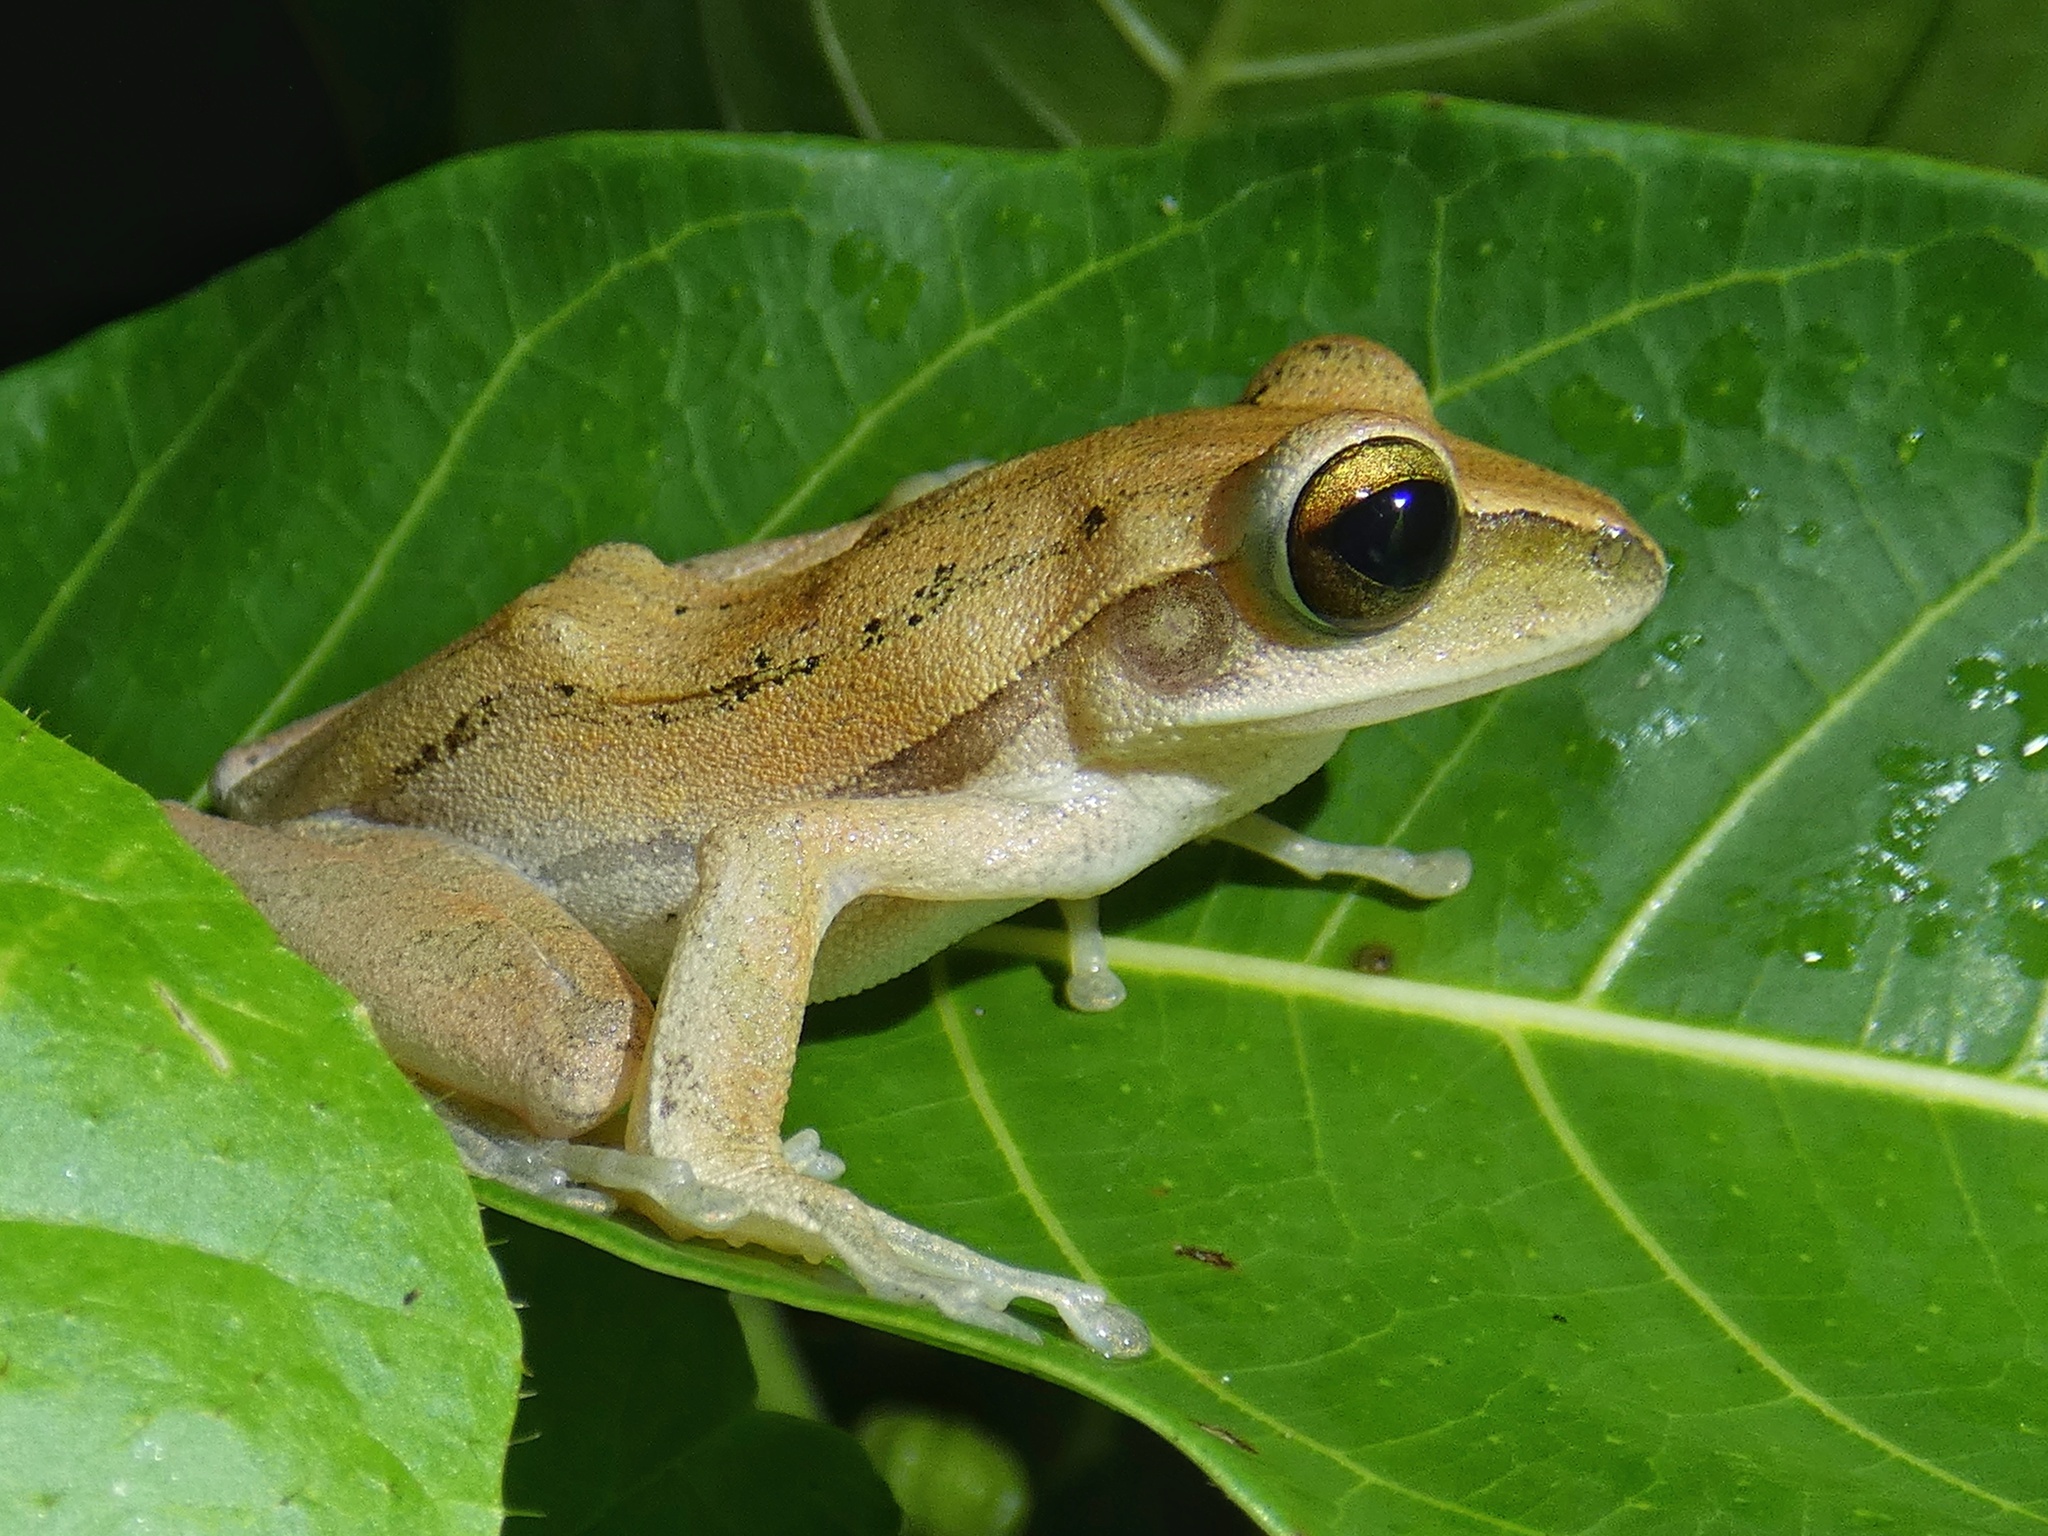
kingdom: Animalia
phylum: Chordata
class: Amphibia
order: Anura
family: Rhacophoridae
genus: Polypedates
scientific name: Polypedates leucomystax
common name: Common tree frog/four-lined tree frog
